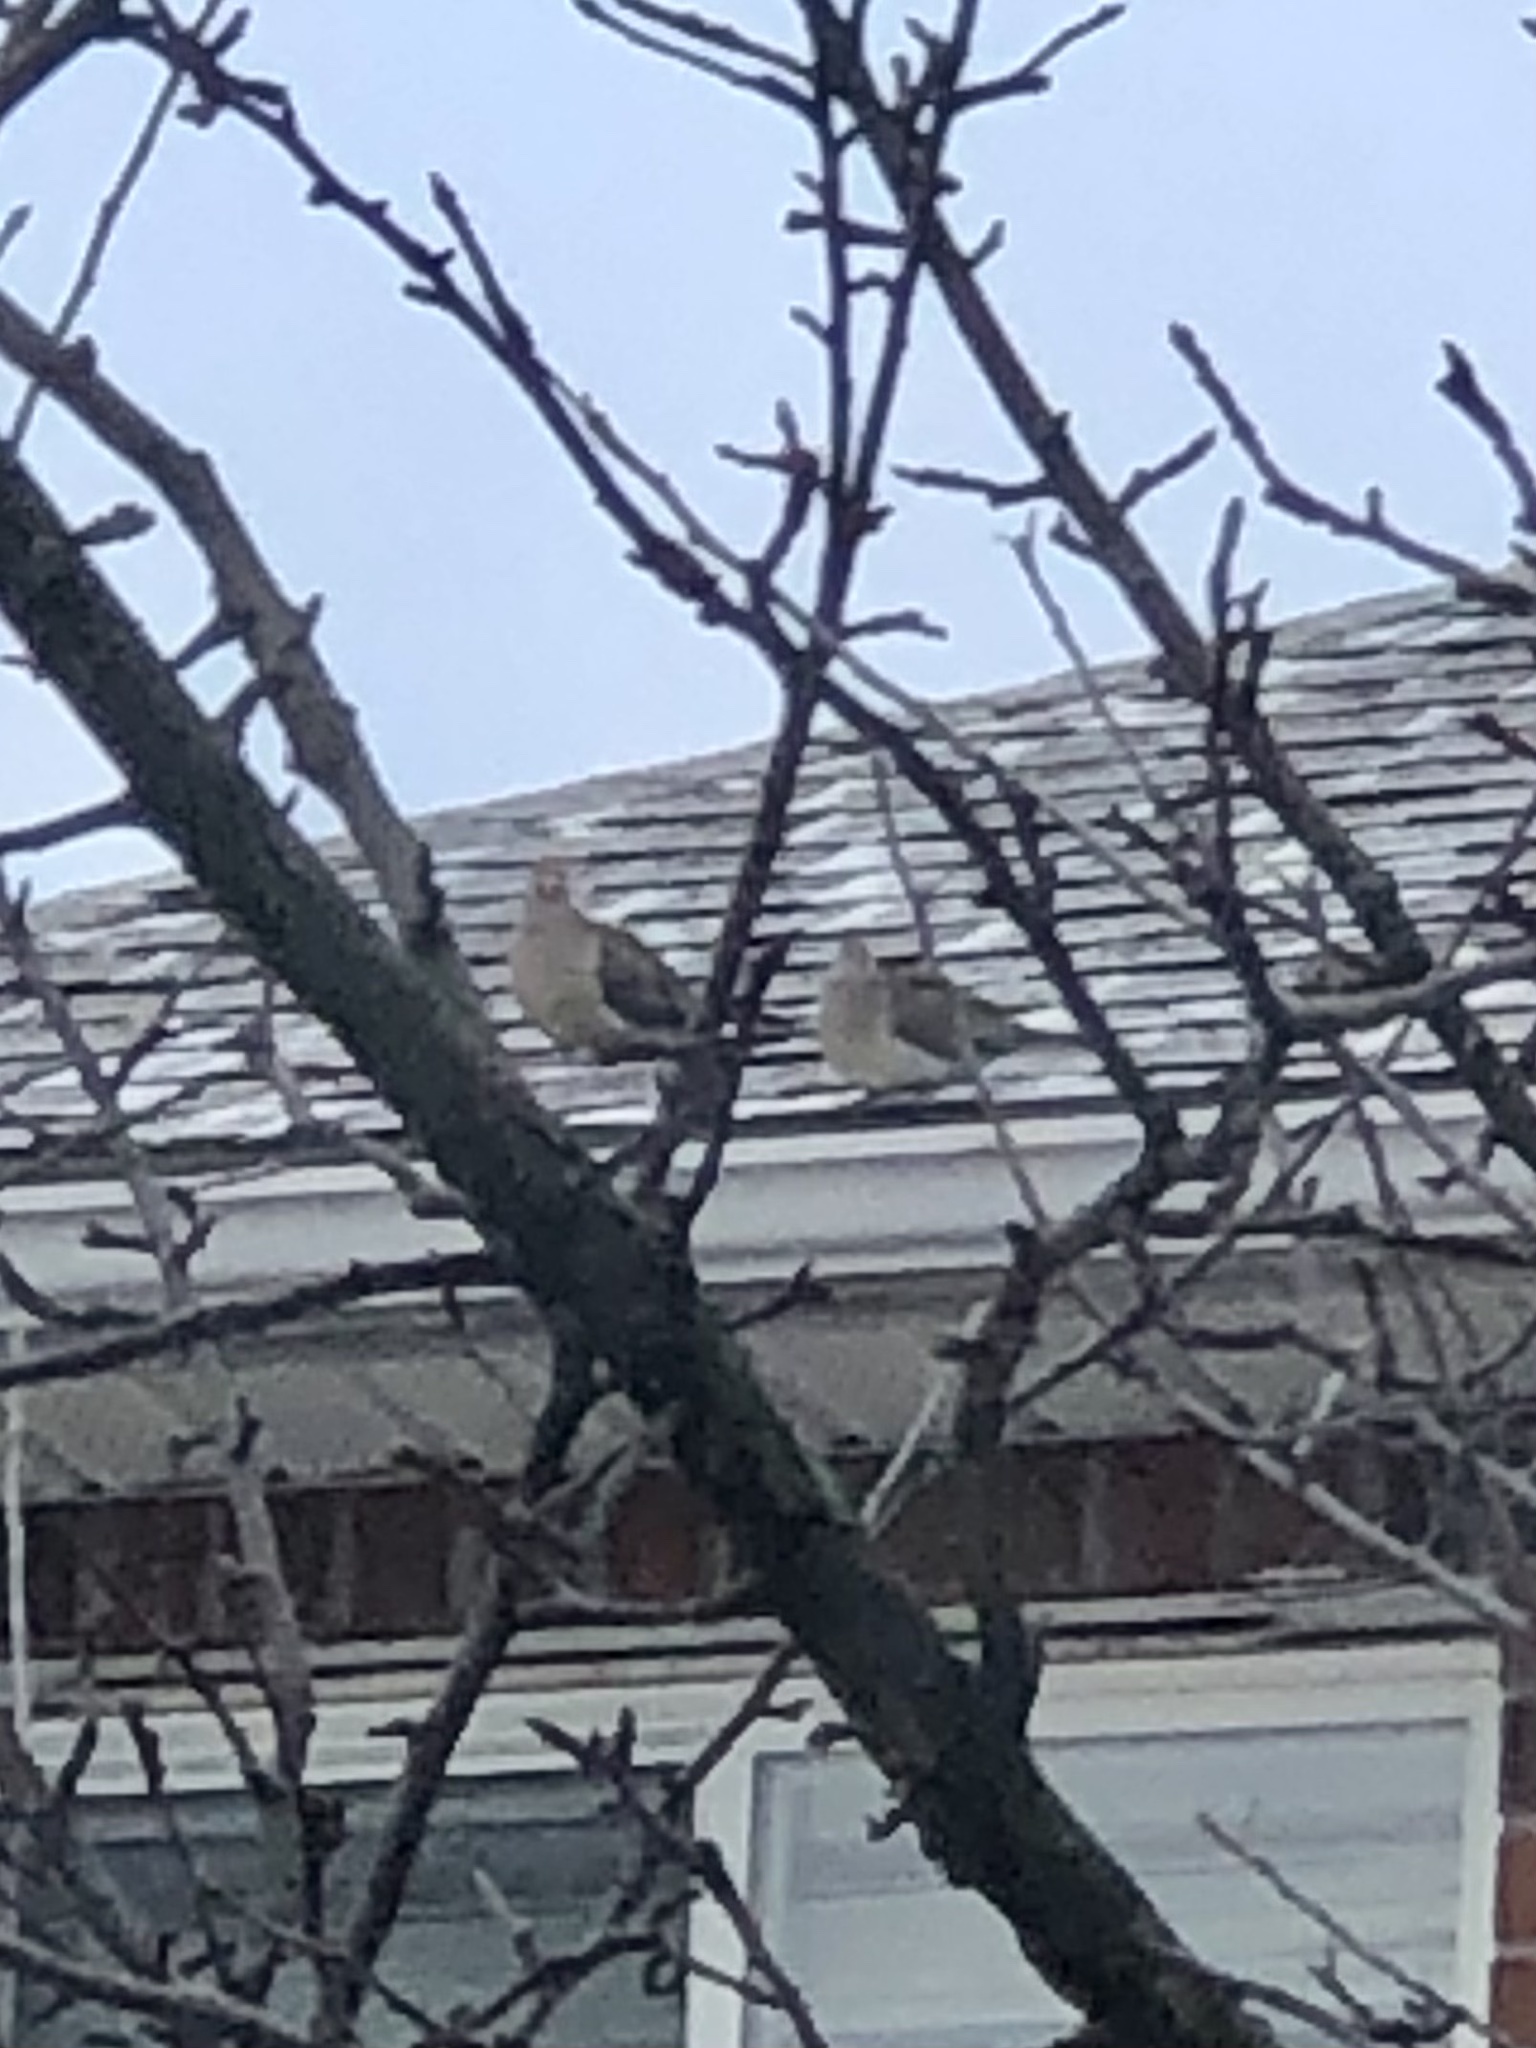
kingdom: Animalia
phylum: Chordata
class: Aves
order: Columbiformes
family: Columbidae
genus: Zenaida
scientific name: Zenaida macroura
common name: Mourning dove
